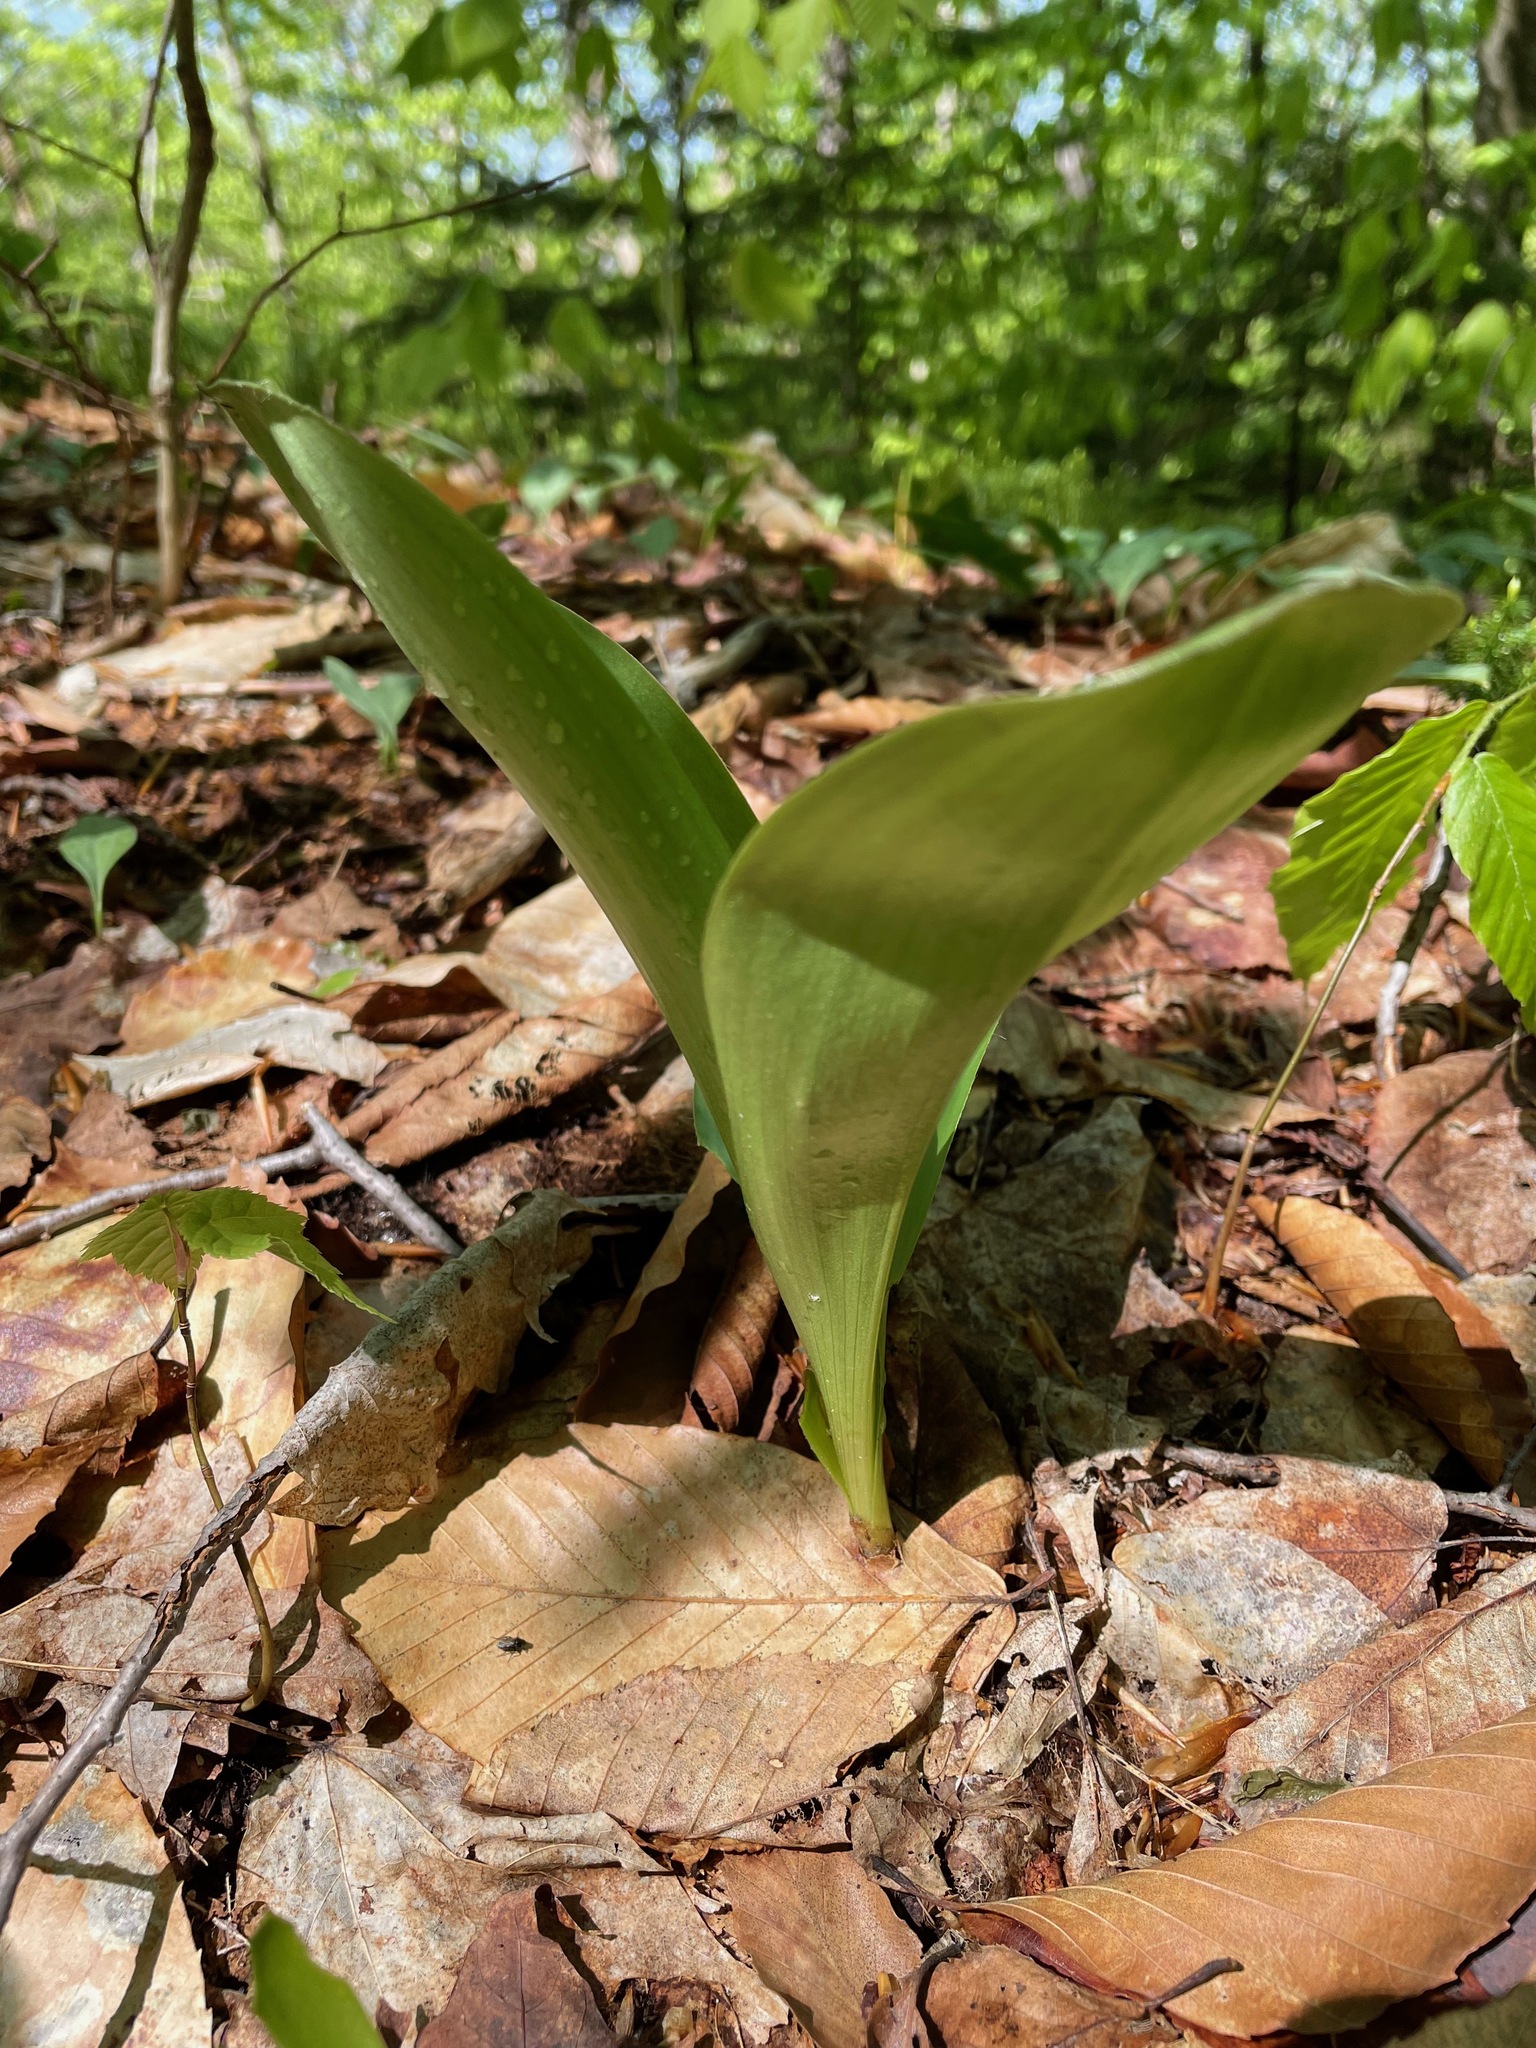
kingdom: Plantae
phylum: Tracheophyta
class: Liliopsida
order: Liliales
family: Liliaceae
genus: Clintonia
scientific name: Clintonia borealis
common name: Yellow clintonia
